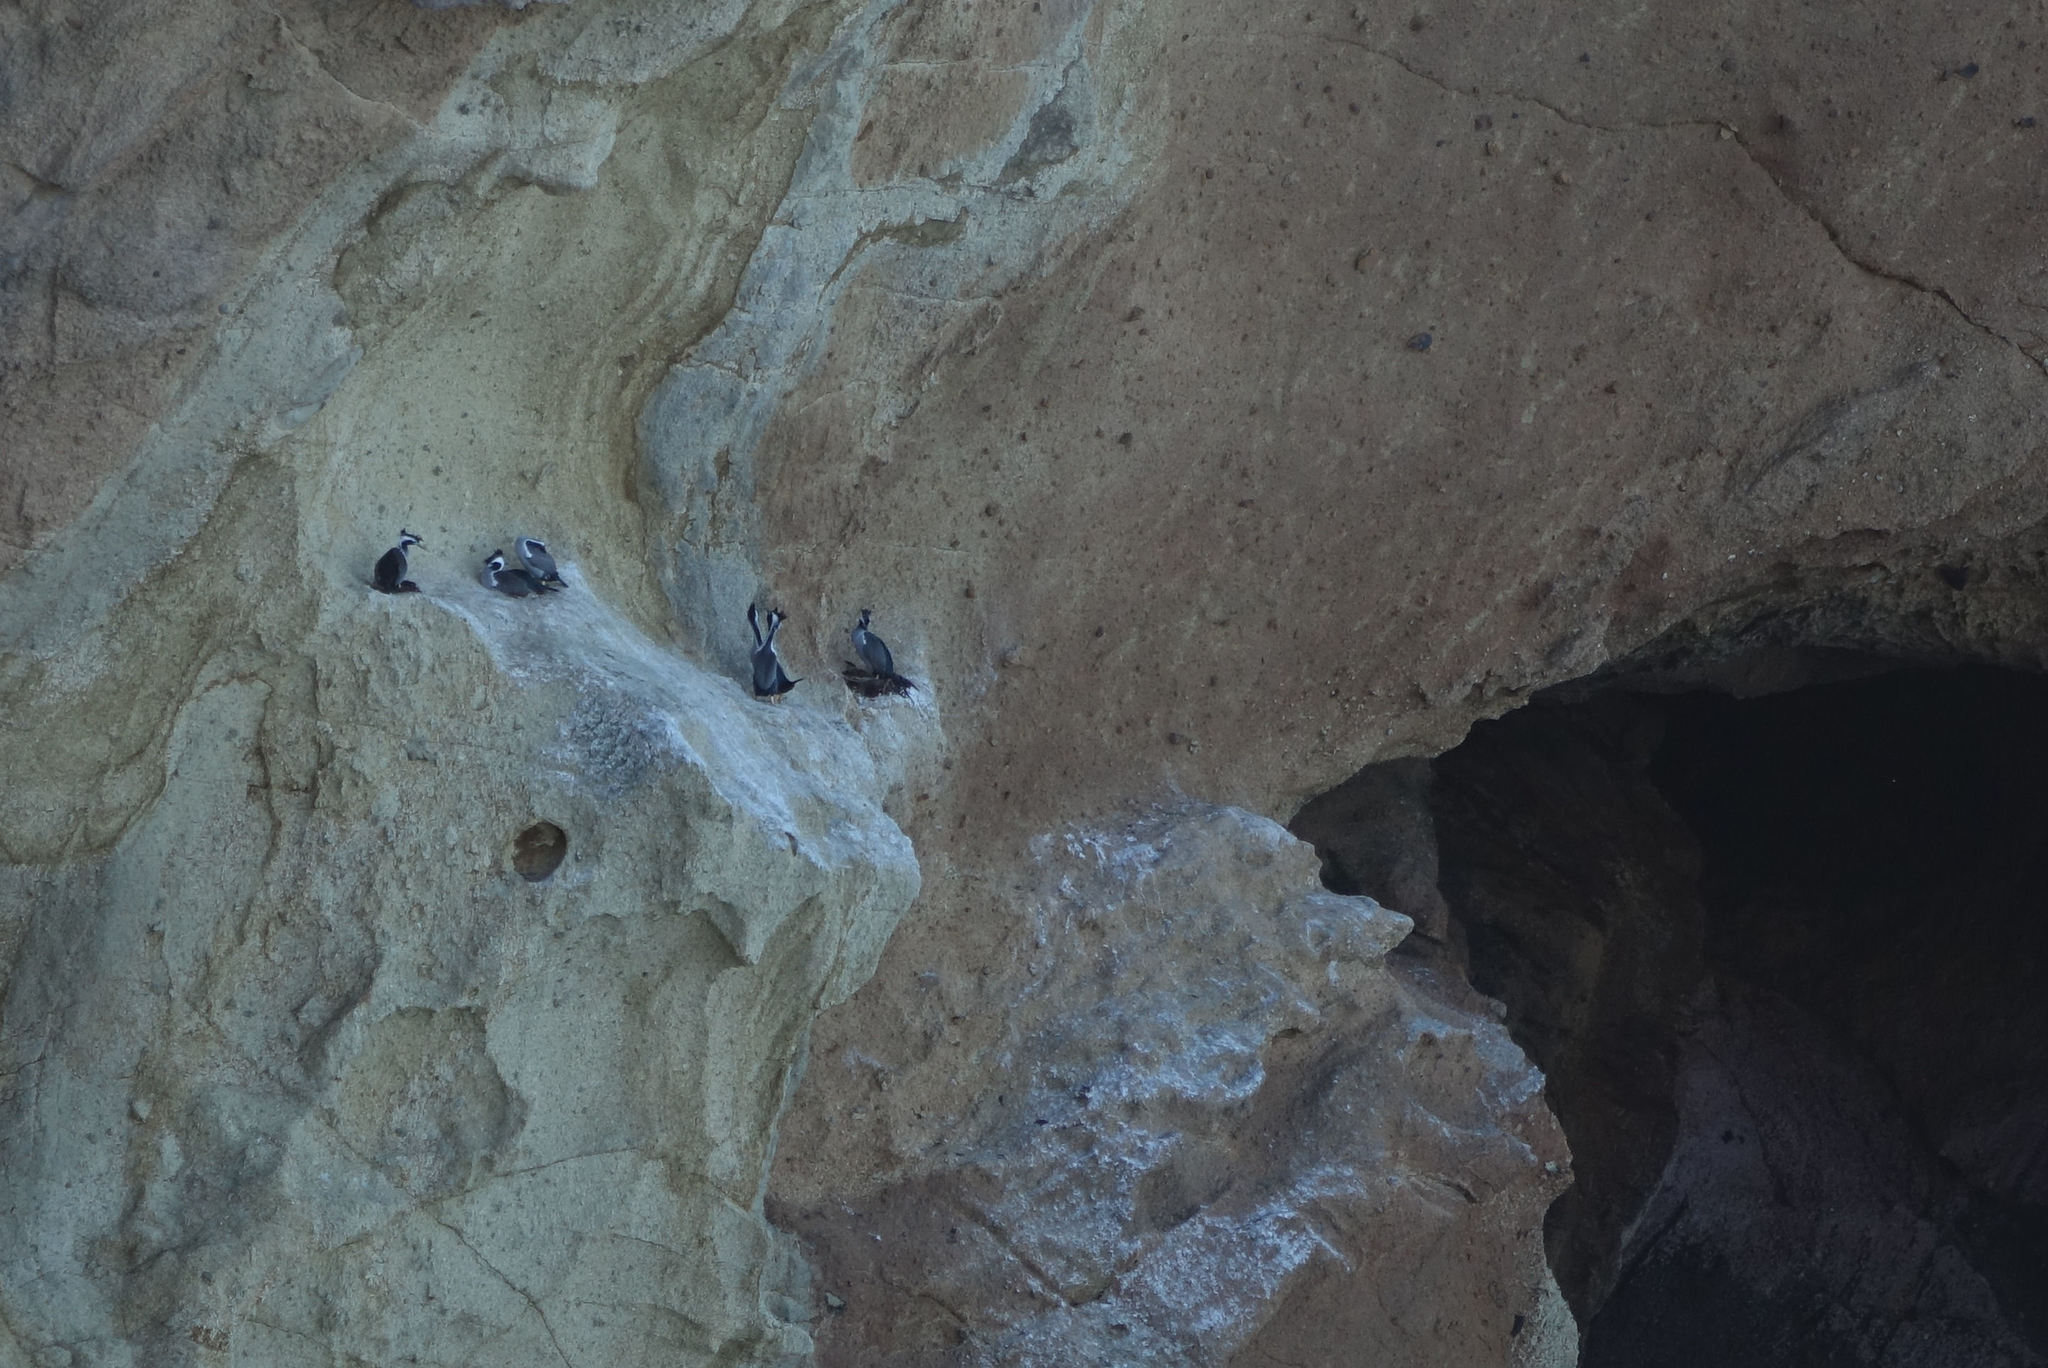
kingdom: Animalia
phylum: Chordata
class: Aves
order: Suliformes
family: Phalacrocoracidae
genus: Phalacrocorax
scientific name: Phalacrocorax punctatus
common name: Spotted shag
